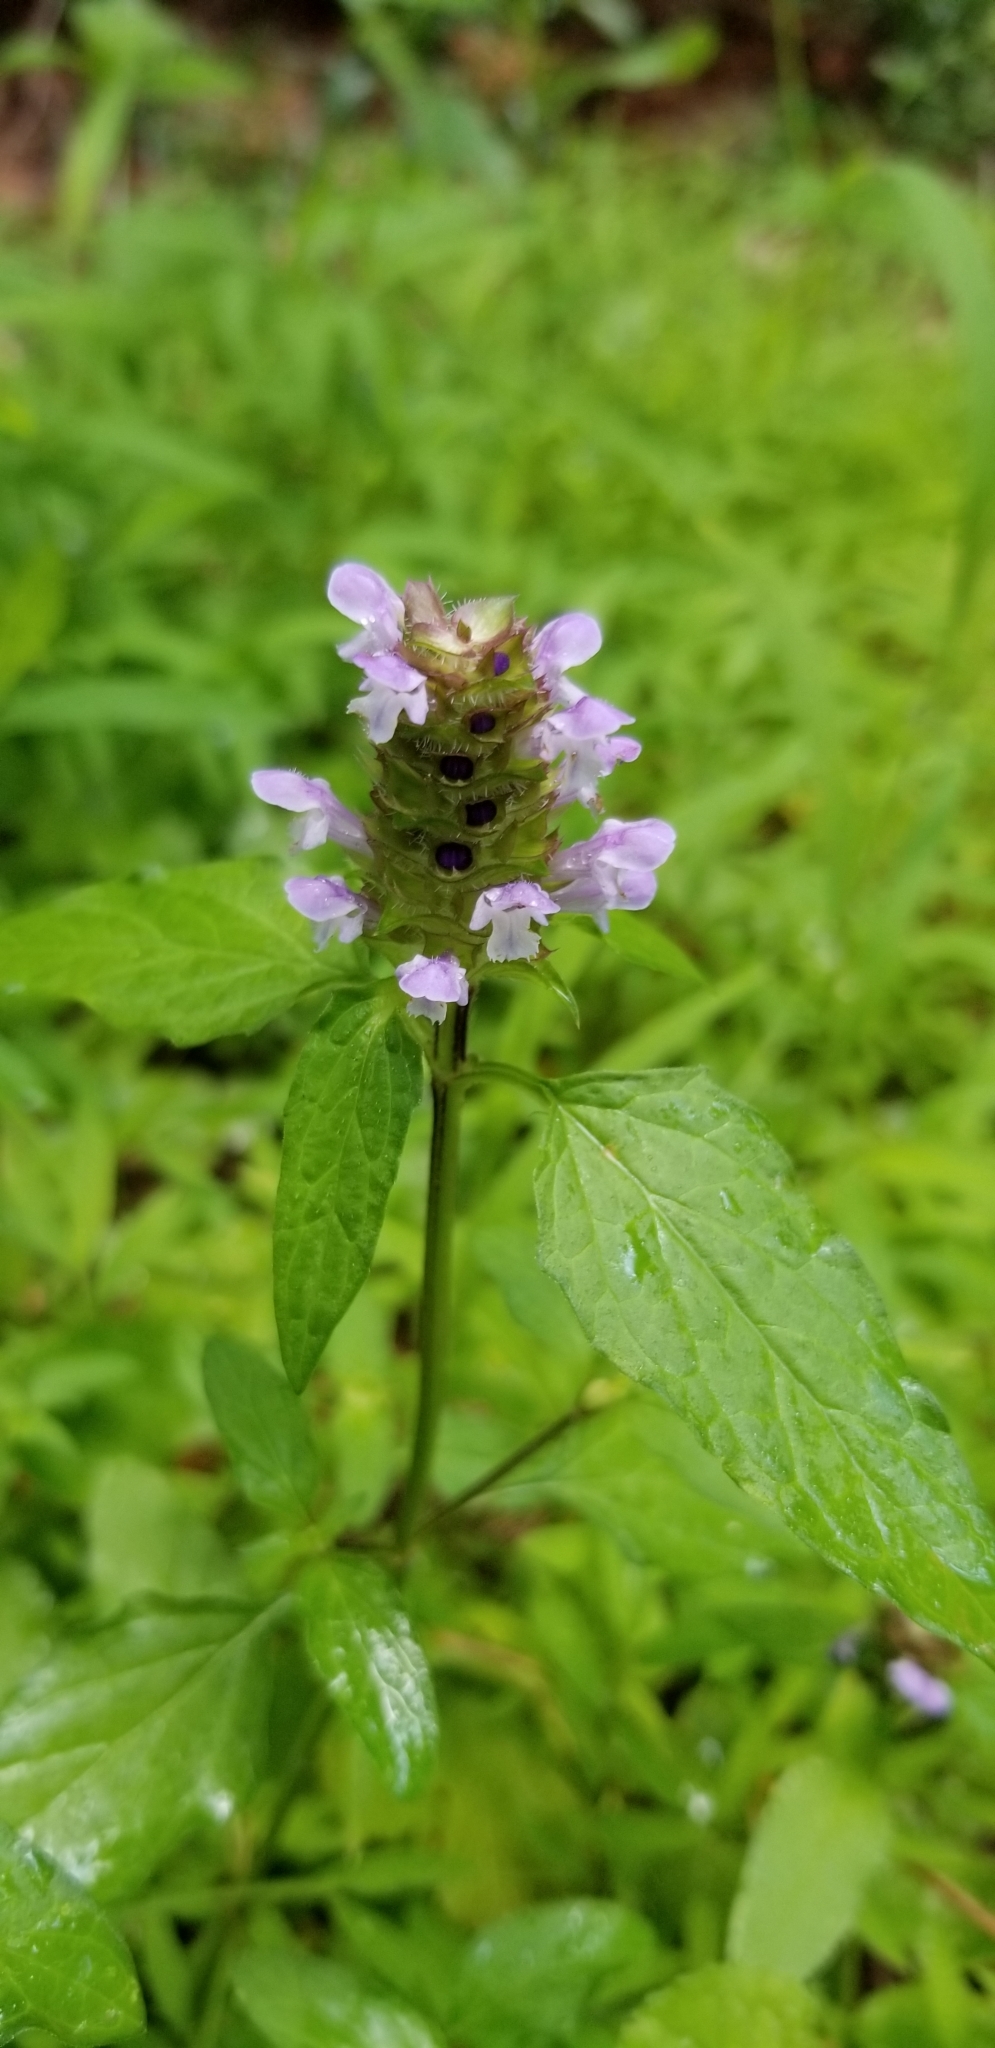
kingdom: Plantae
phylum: Tracheophyta
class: Magnoliopsida
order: Lamiales
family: Lamiaceae
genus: Prunella
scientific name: Prunella vulgaris
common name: Heal-all
